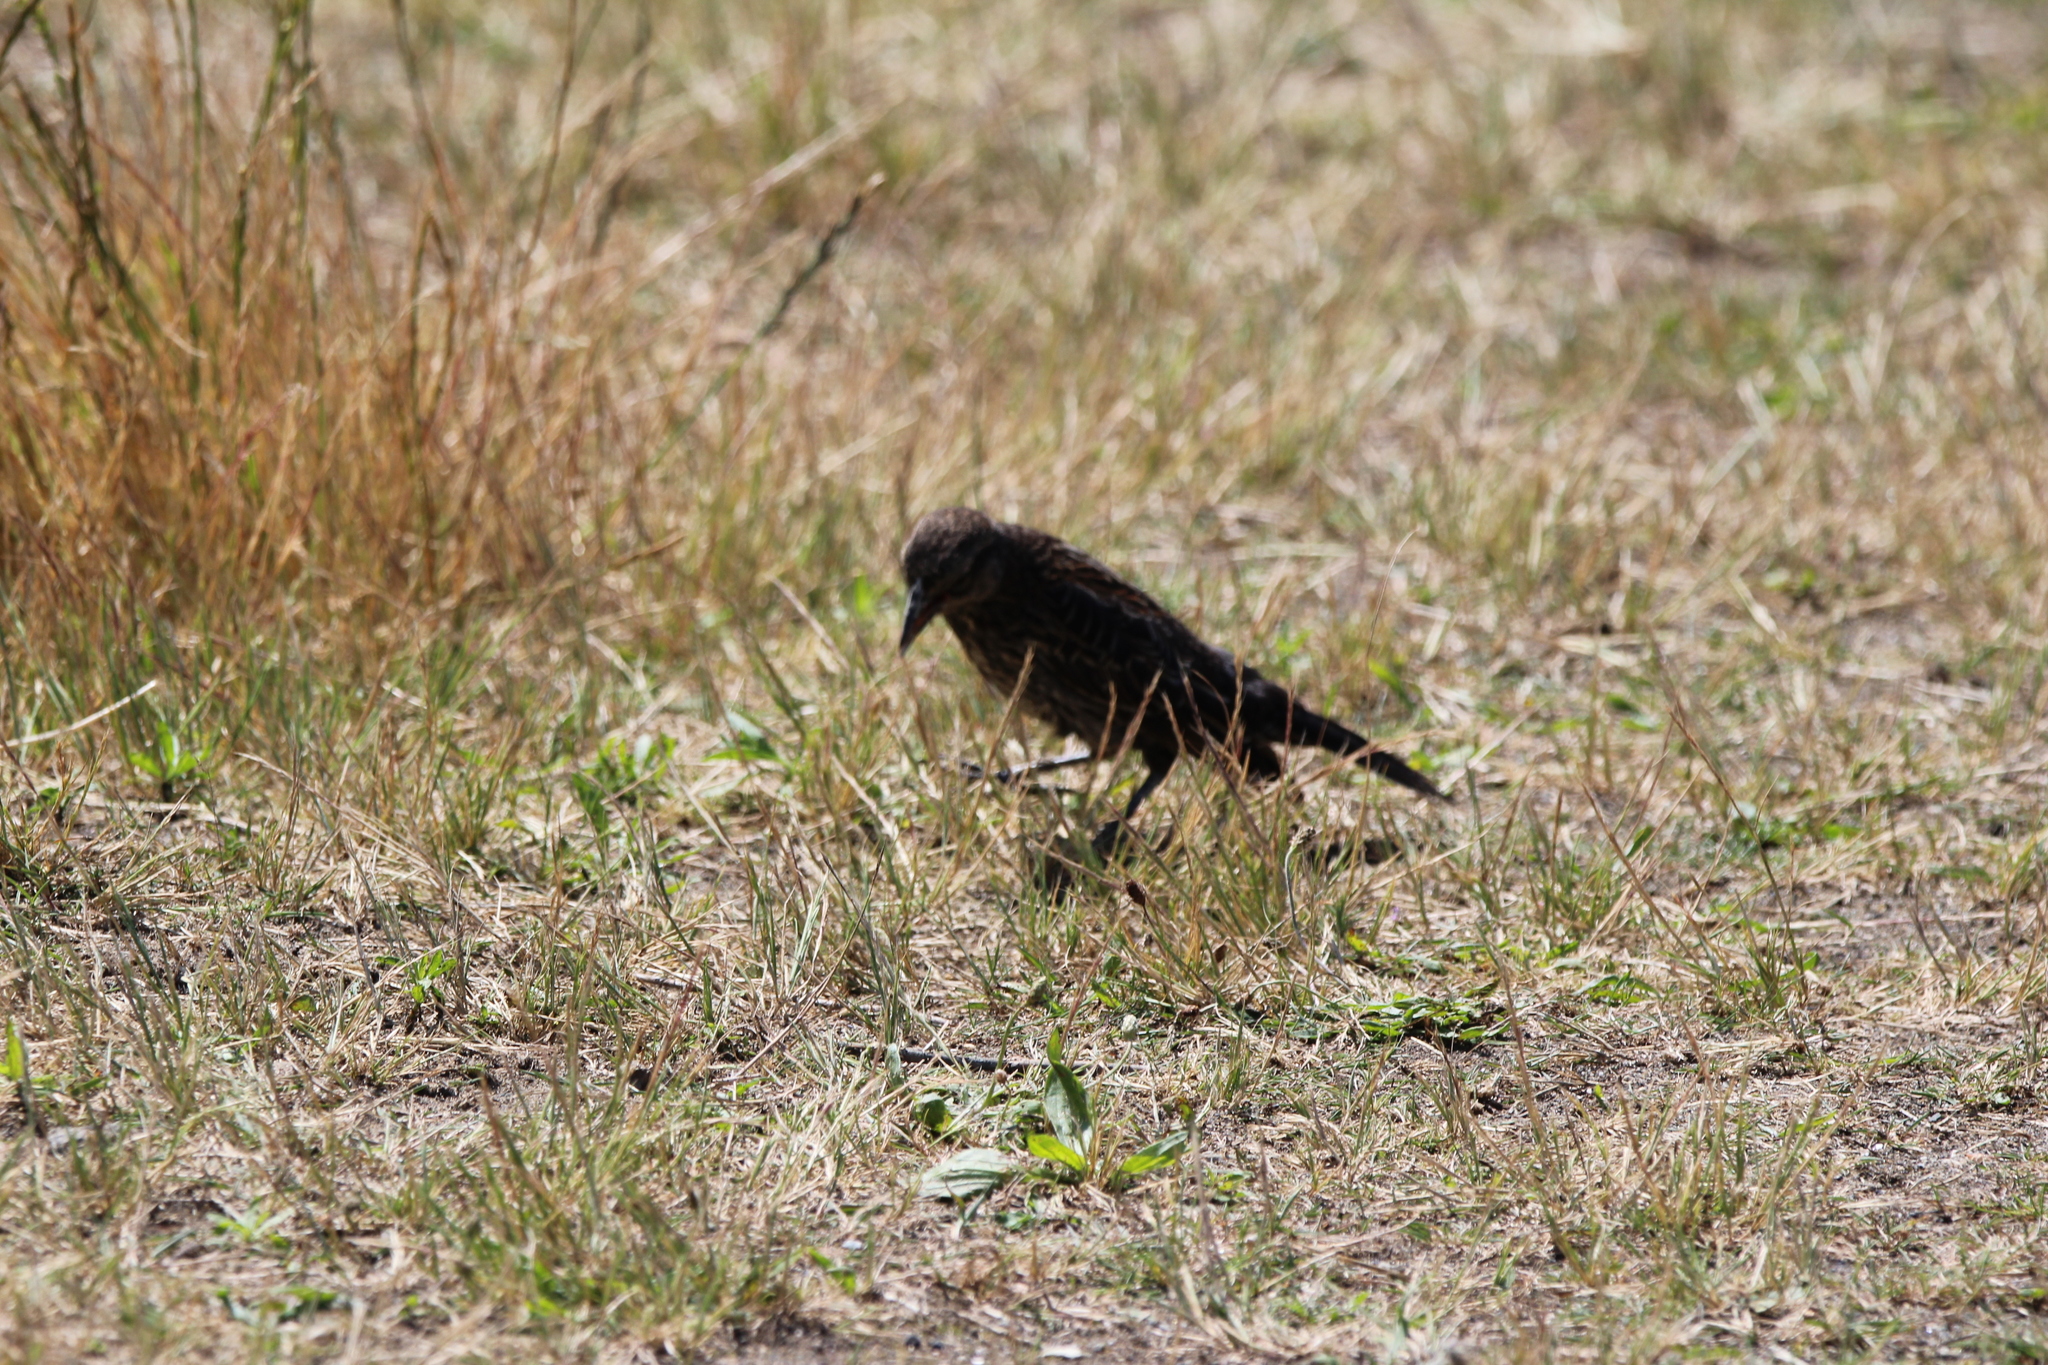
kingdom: Animalia
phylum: Chordata
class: Aves
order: Passeriformes
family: Icteridae
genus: Agelaius
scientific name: Agelaius phoeniceus
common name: Red-winged blackbird
